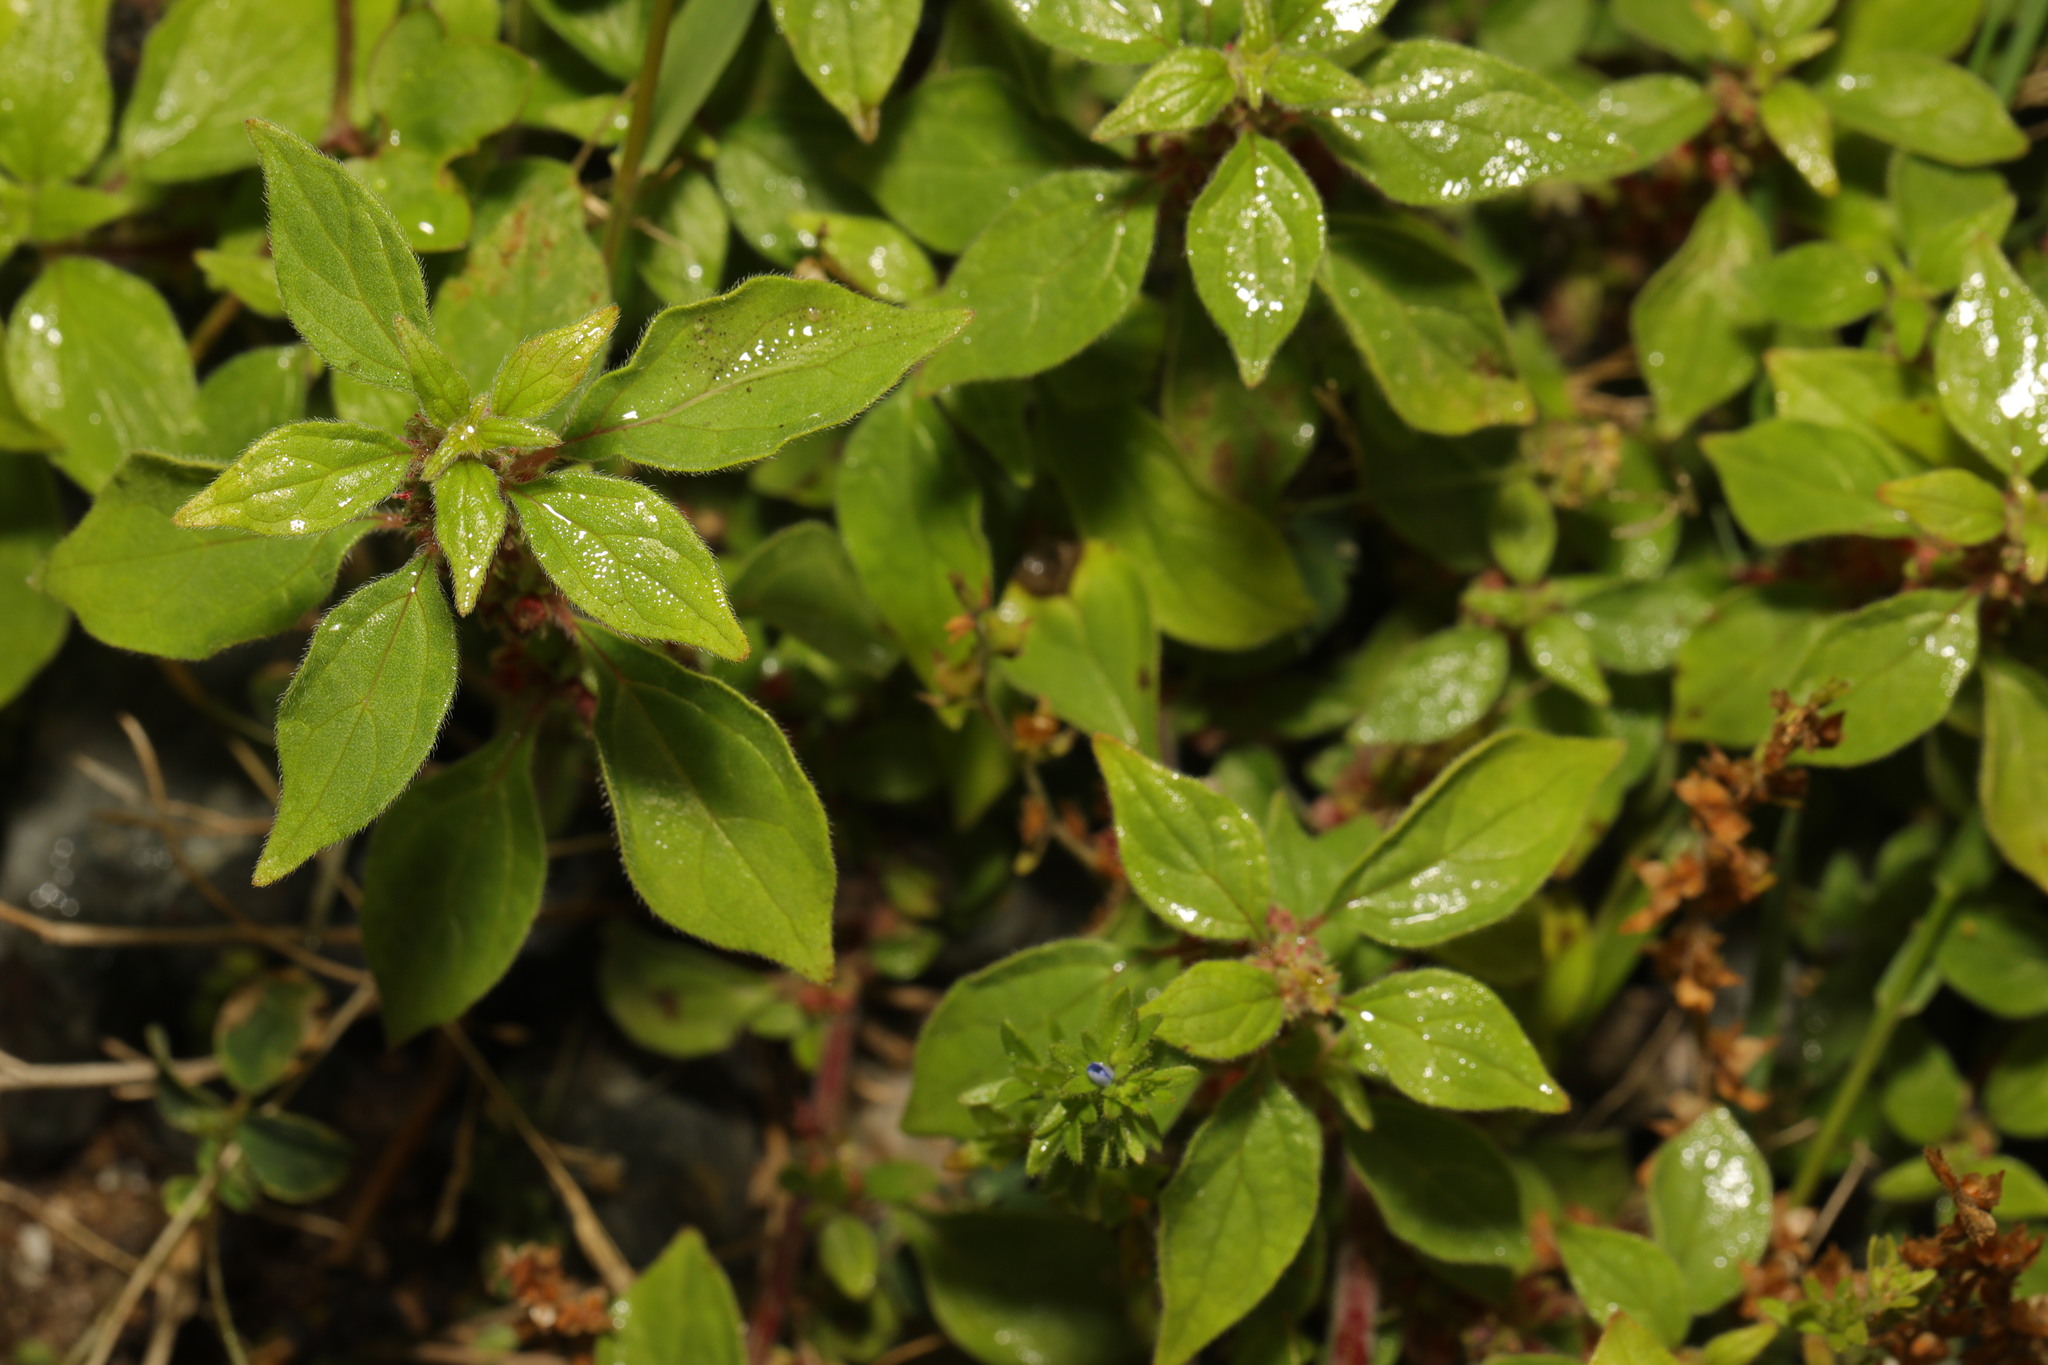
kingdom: Plantae
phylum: Tracheophyta
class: Magnoliopsida
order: Rosales
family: Urticaceae
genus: Parietaria
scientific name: Parietaria judaica
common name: Pellitory-of-the-wall
